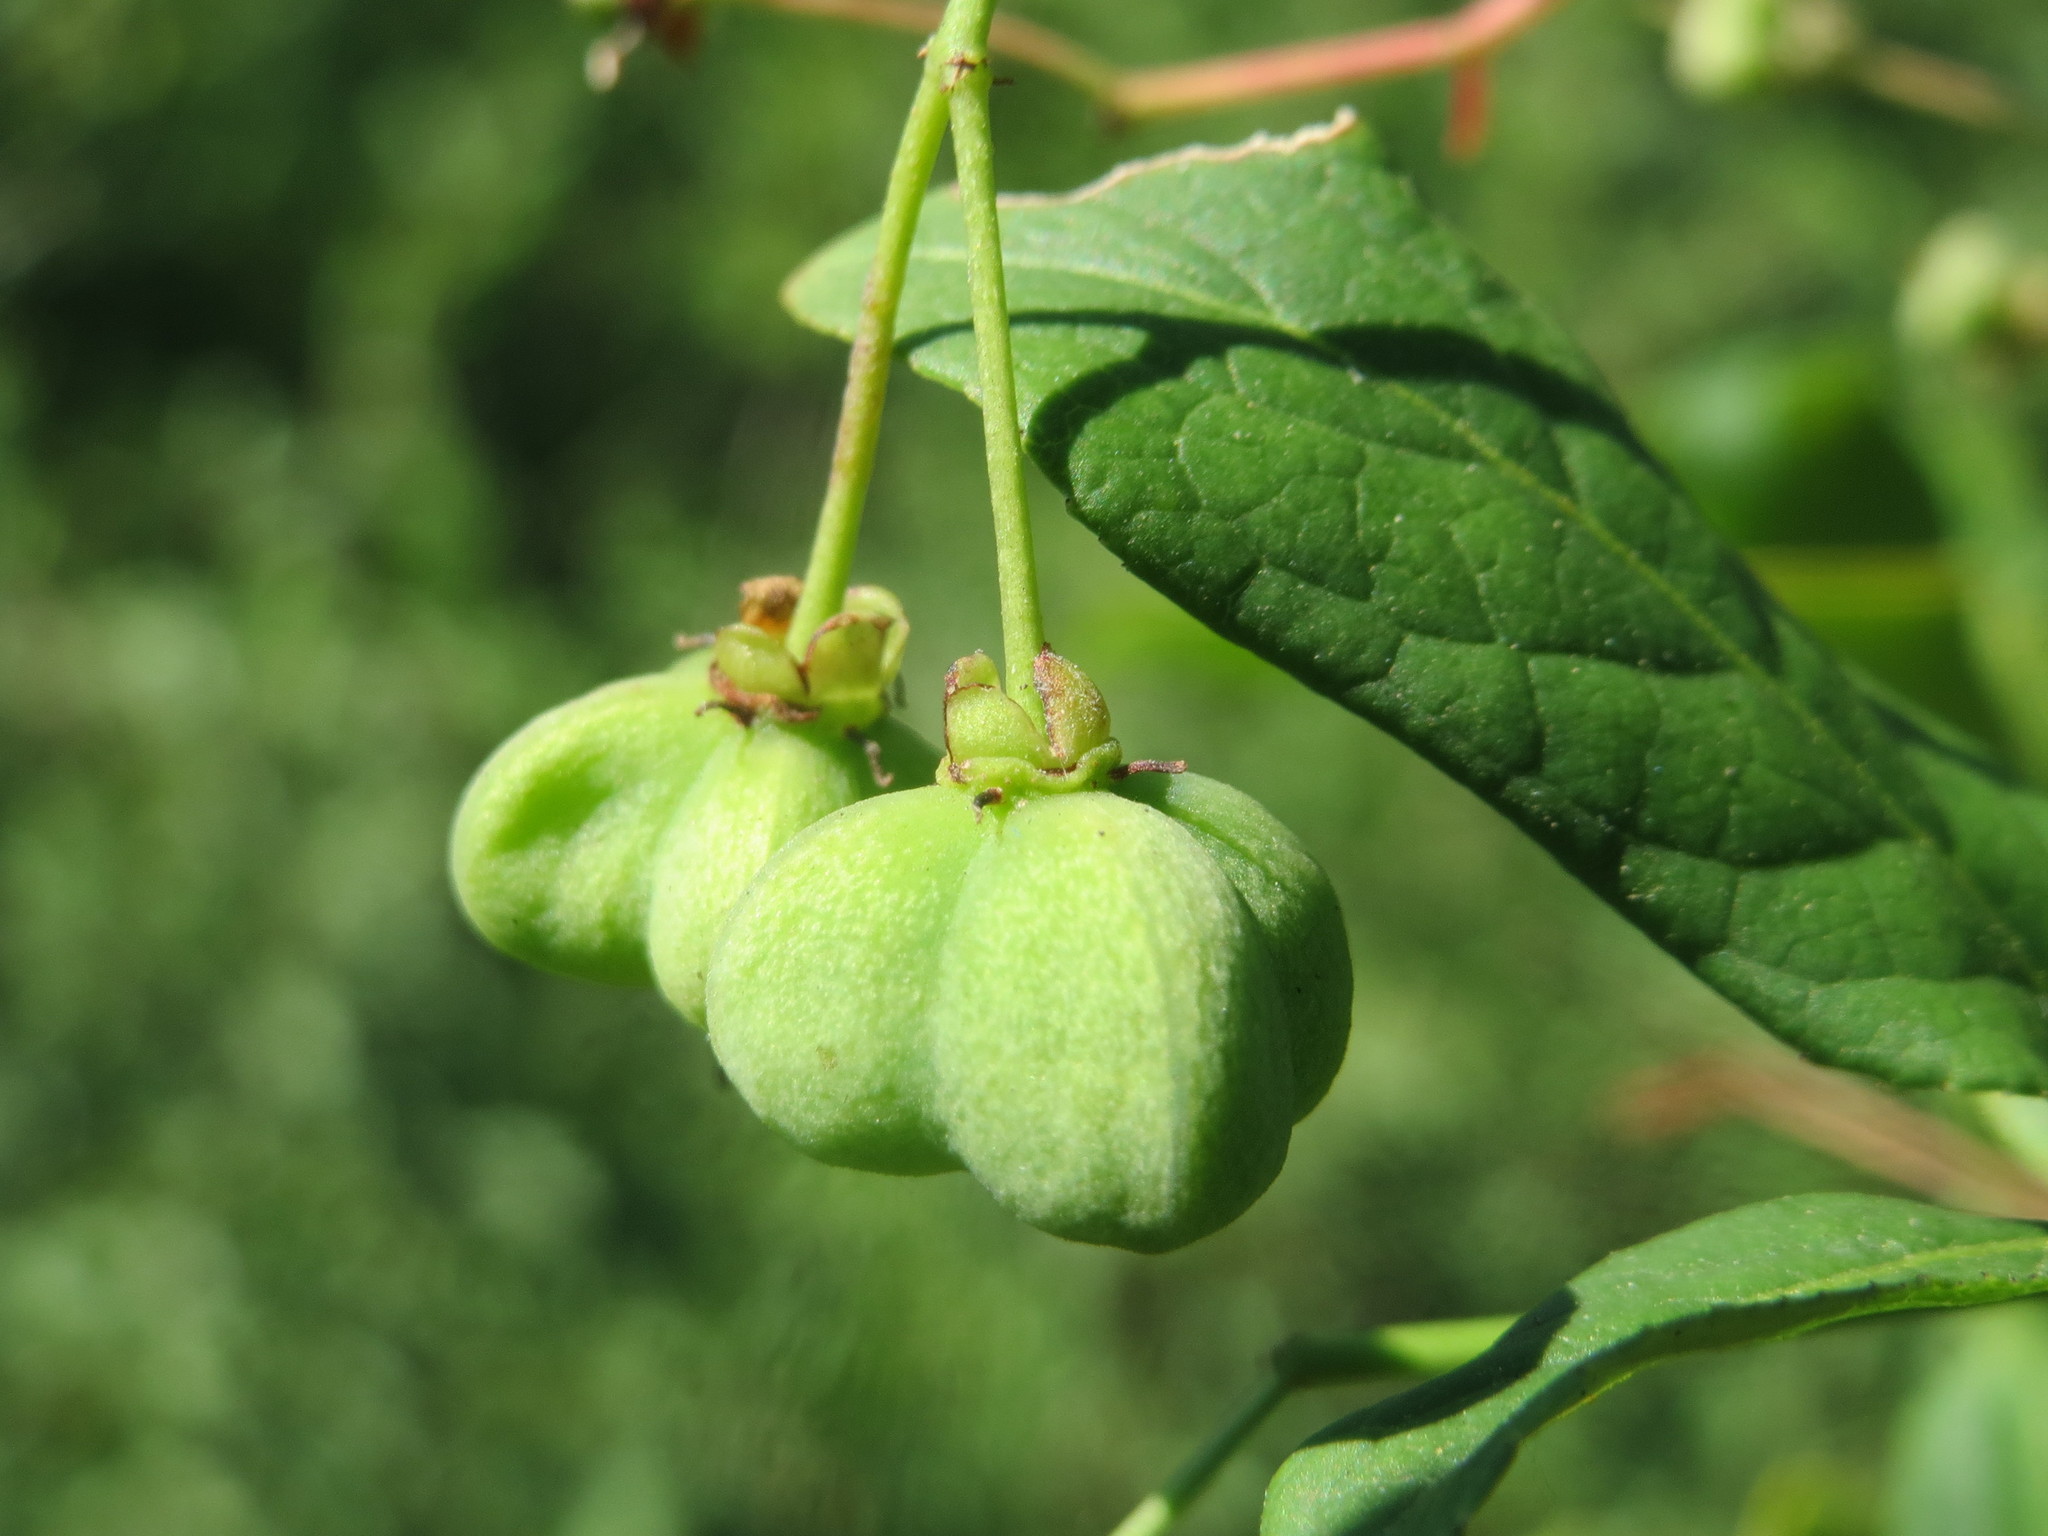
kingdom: Plantae
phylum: Tracheophyta
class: Magnoliopsida
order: Celastrales
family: Celastraceae
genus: Euonymus
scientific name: Euonymus europaeus
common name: Spindle
